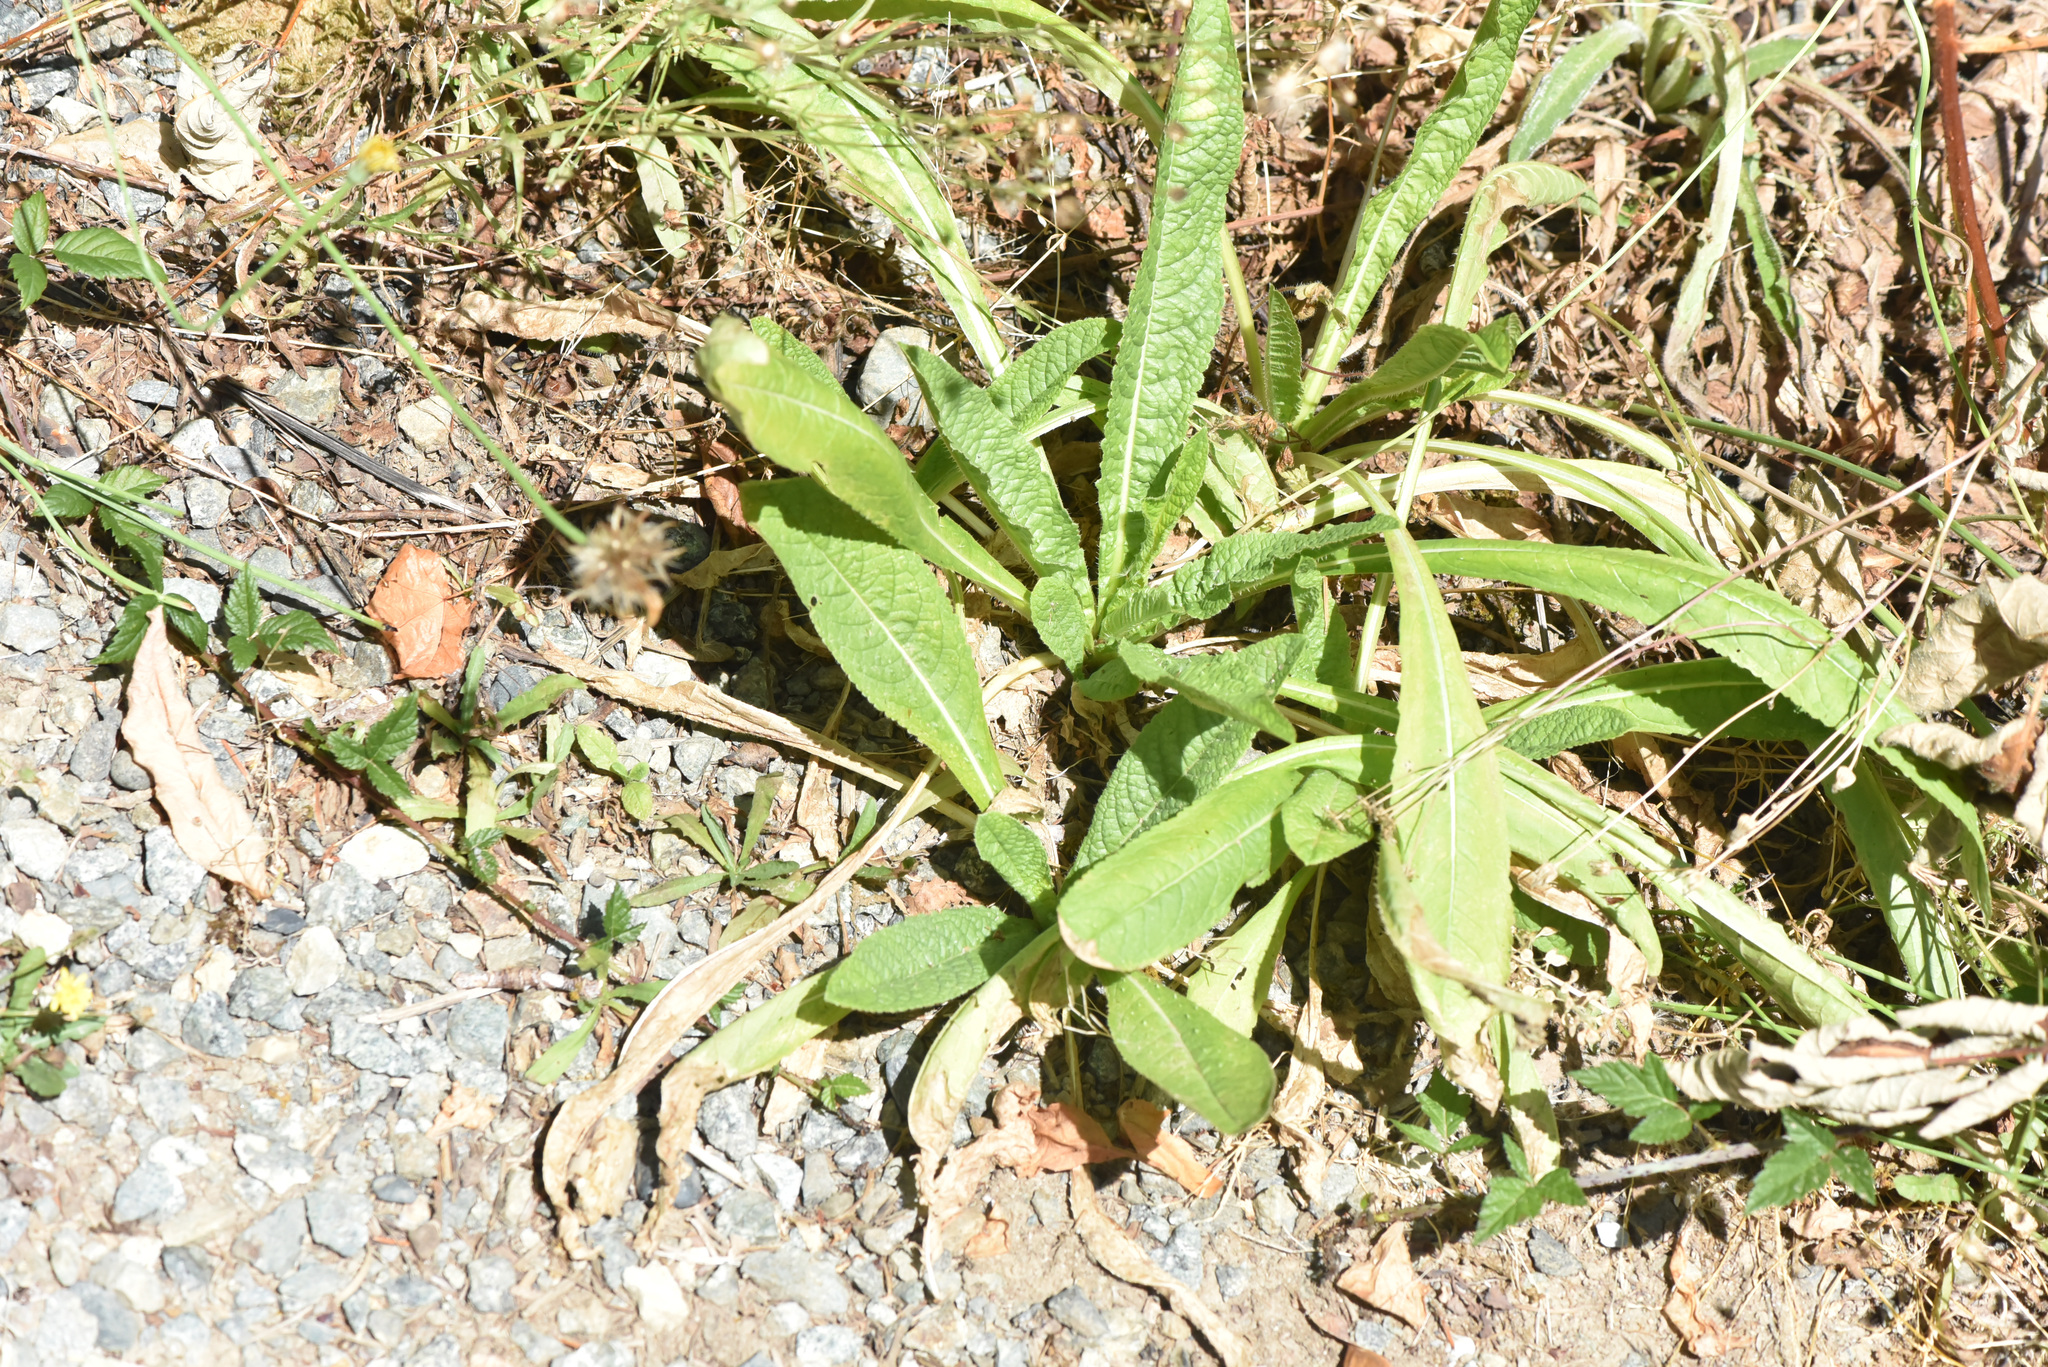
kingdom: Plantae
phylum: Tracheophyta
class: Magnoliopsida
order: Dipsacales
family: Caprifoliaceae
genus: Dipsacus
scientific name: Dipsacus fullonum
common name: Teasel
